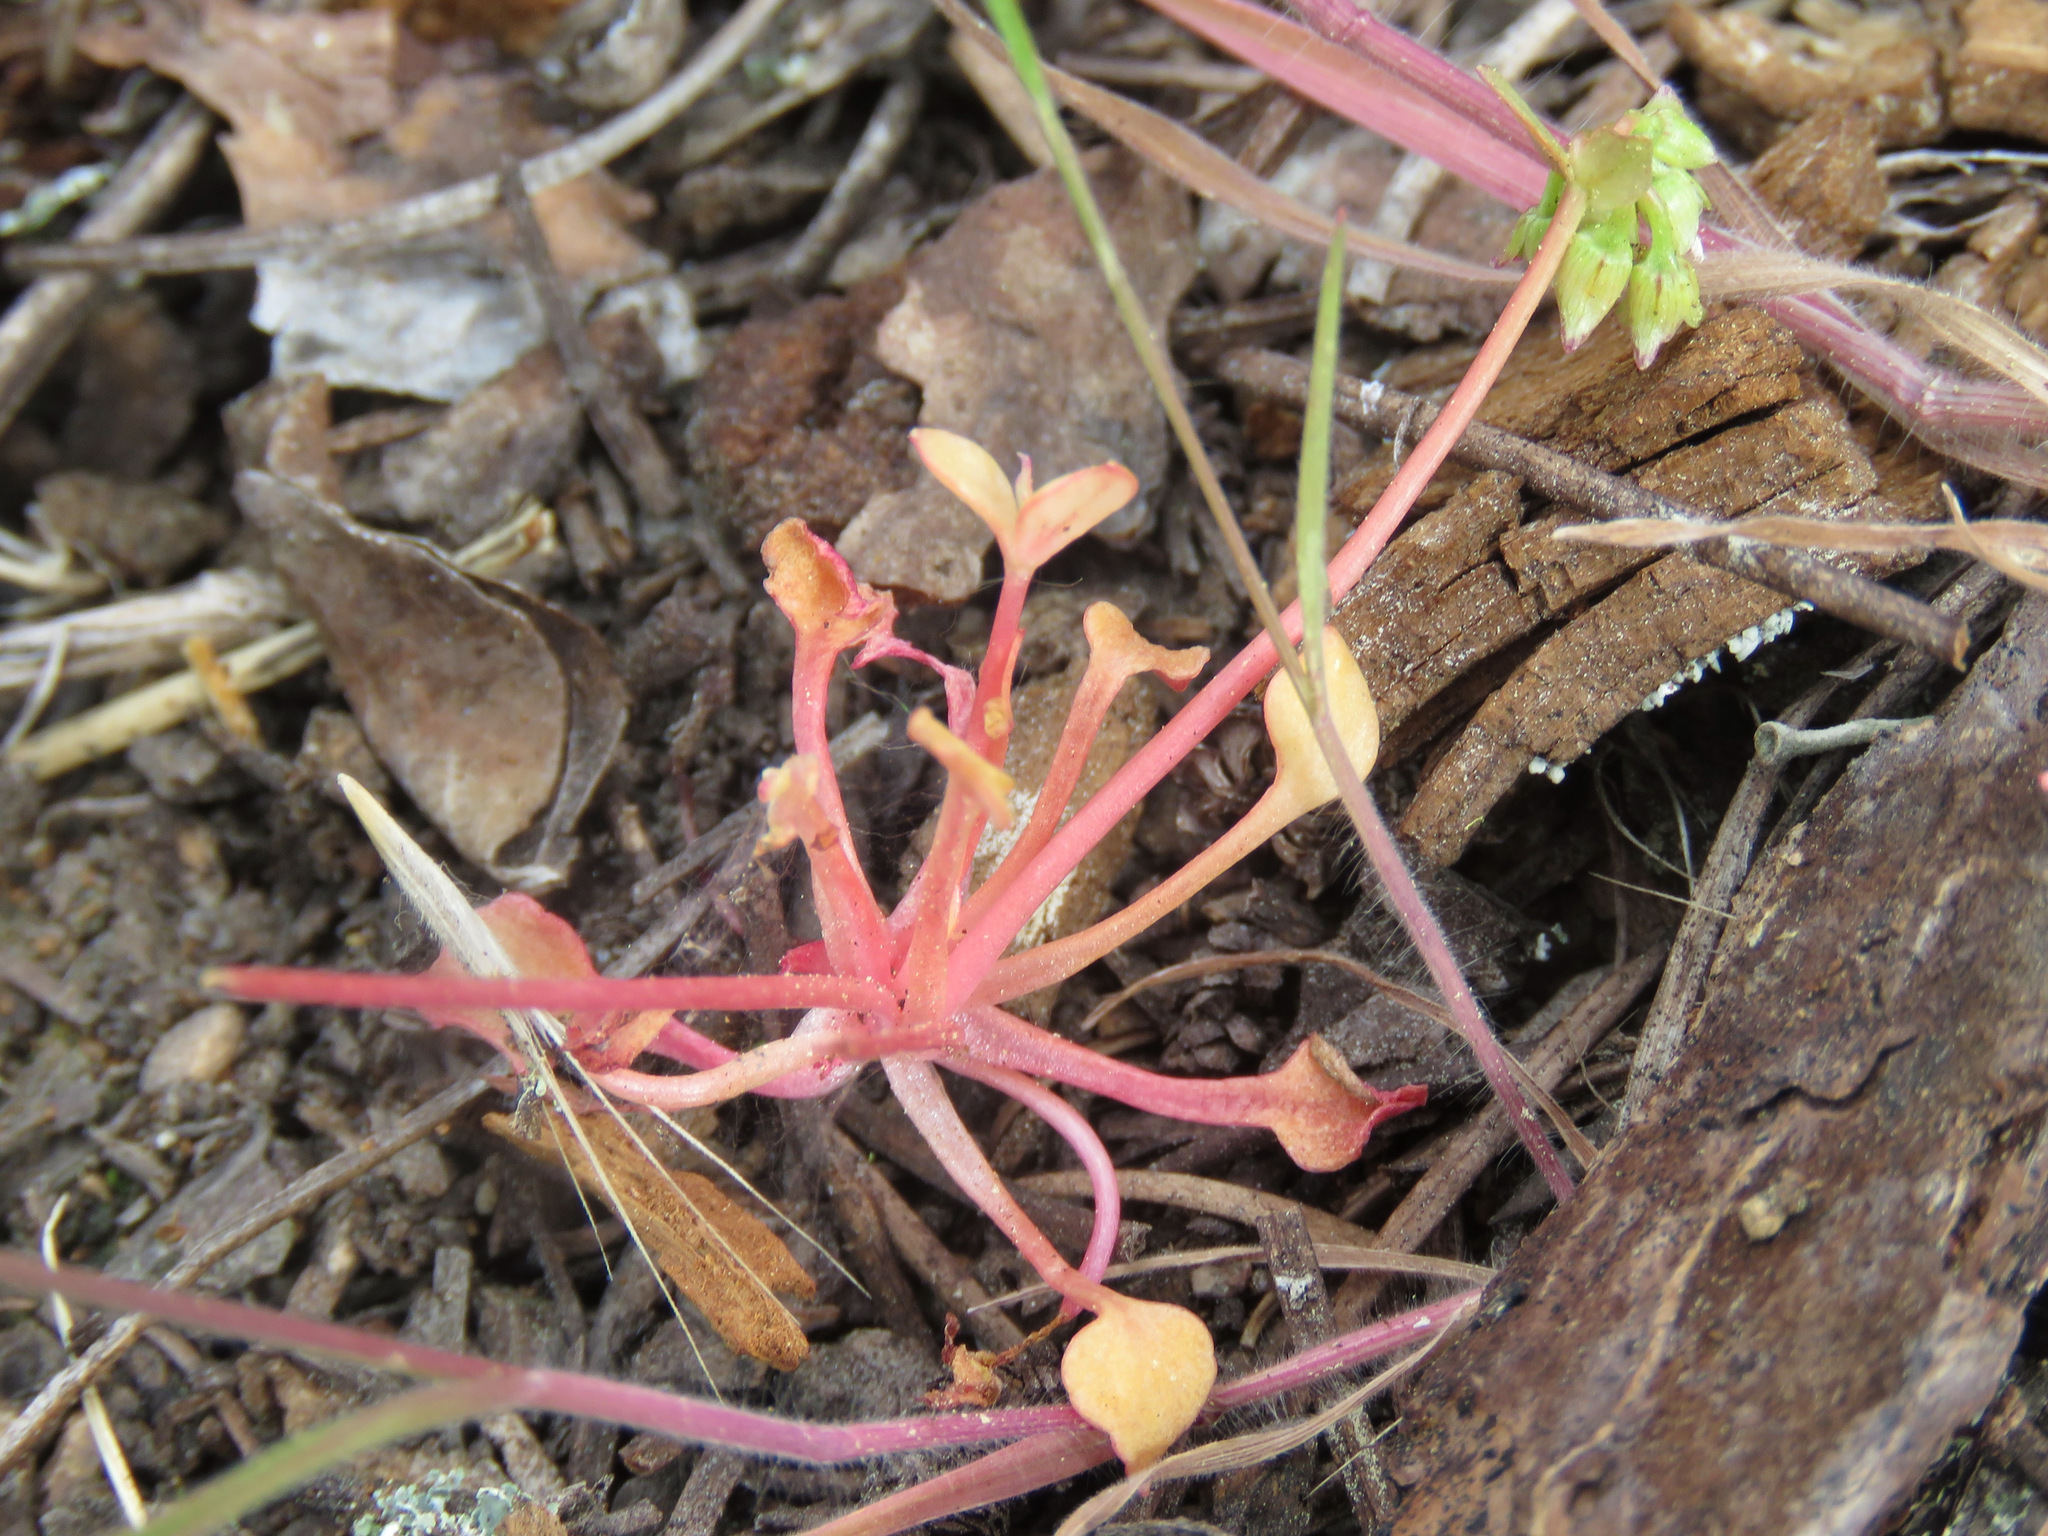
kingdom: Plantae
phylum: Tracheophyta
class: Magnoliopsida
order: Caryophyllales
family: Montiaceae
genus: Claytonia
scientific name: Claytonia rubra
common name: Erubescent miner's-lettuce
